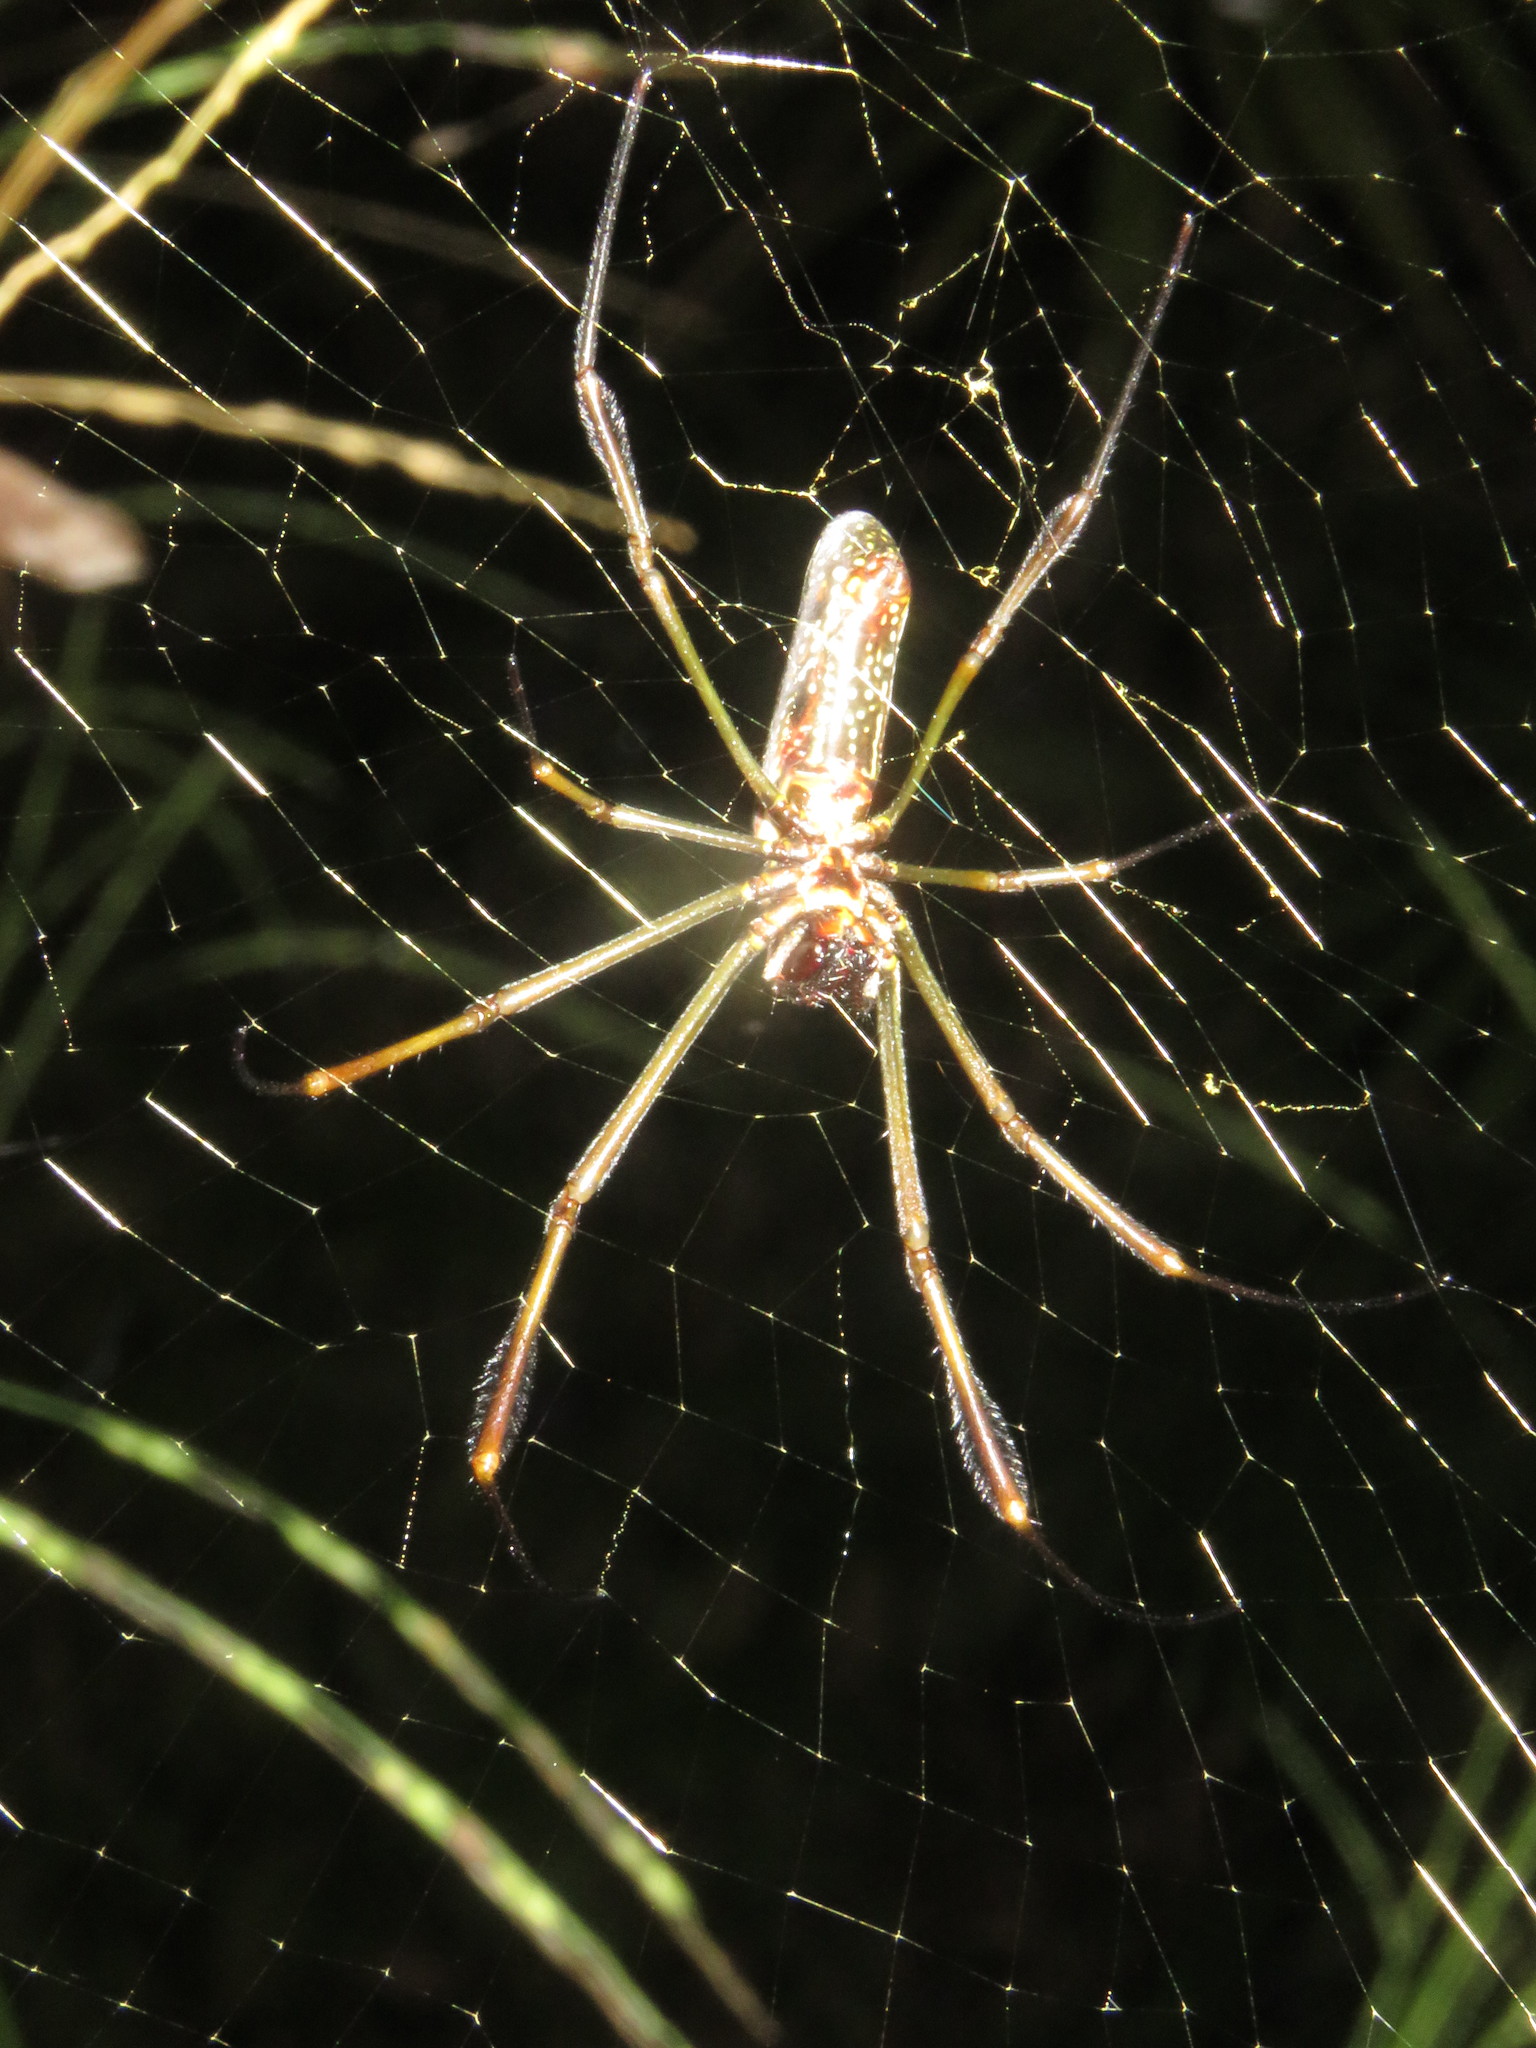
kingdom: Animalia
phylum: Arthropoda
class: Arachnida
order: Araneae
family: Araneidae
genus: Trichonephila
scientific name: Trichonephila clavipes
